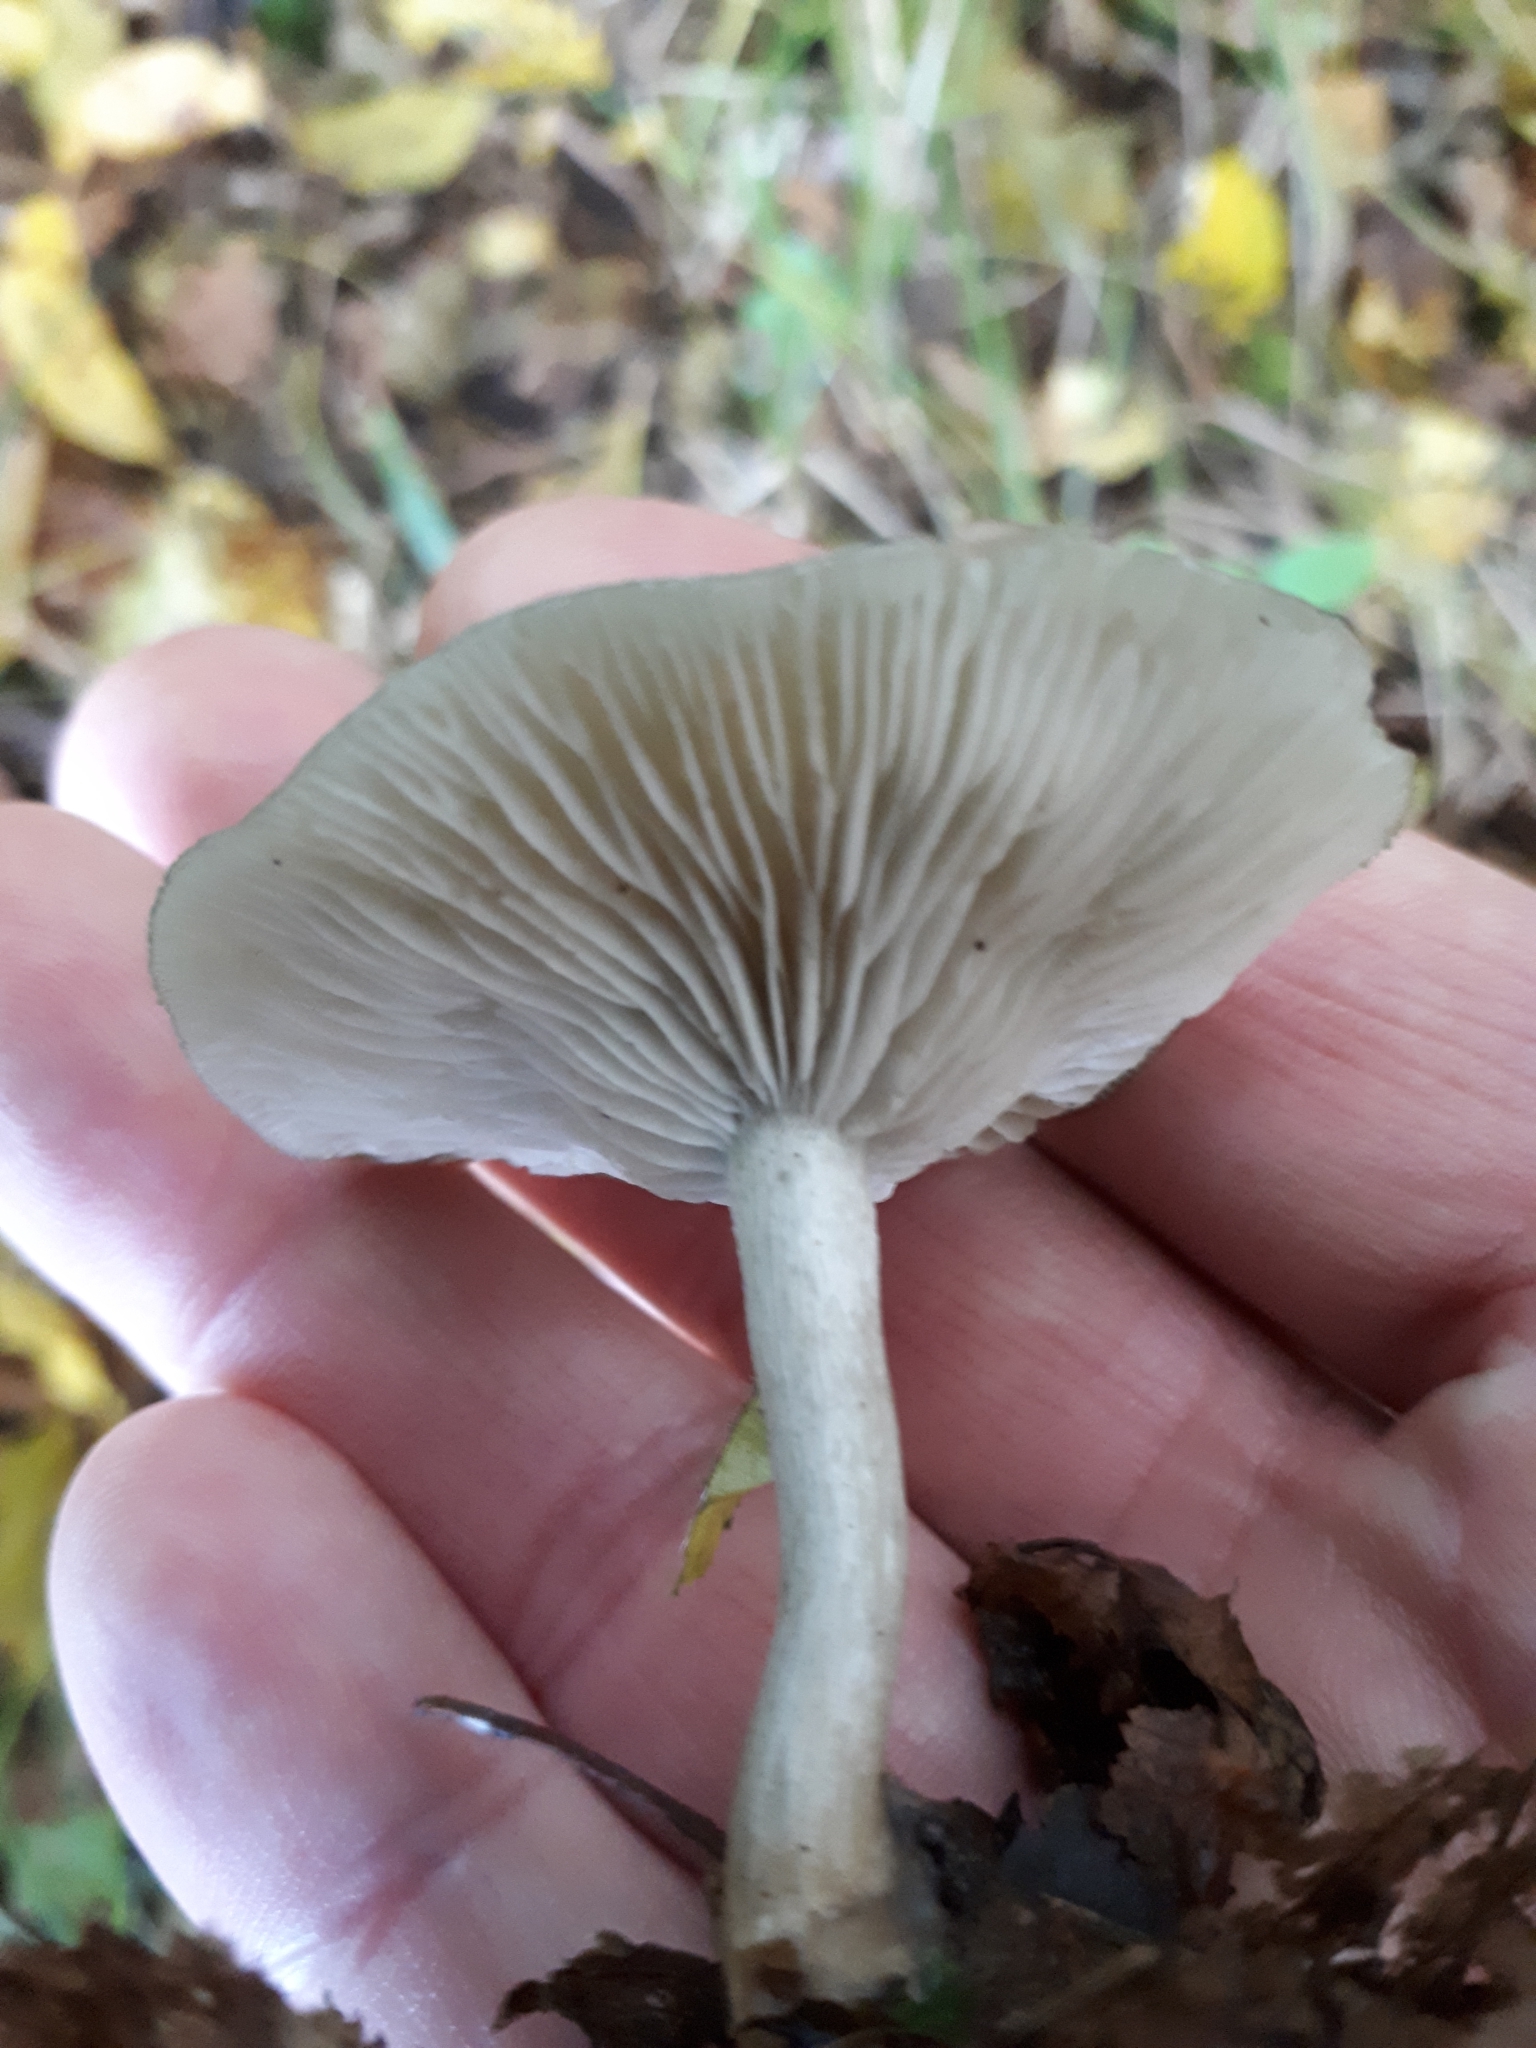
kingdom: Fungi
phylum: Basidiomycota
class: Agaricomycetes
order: Agaricales
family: Tricholomataceae
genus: Collybia
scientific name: Collybia
